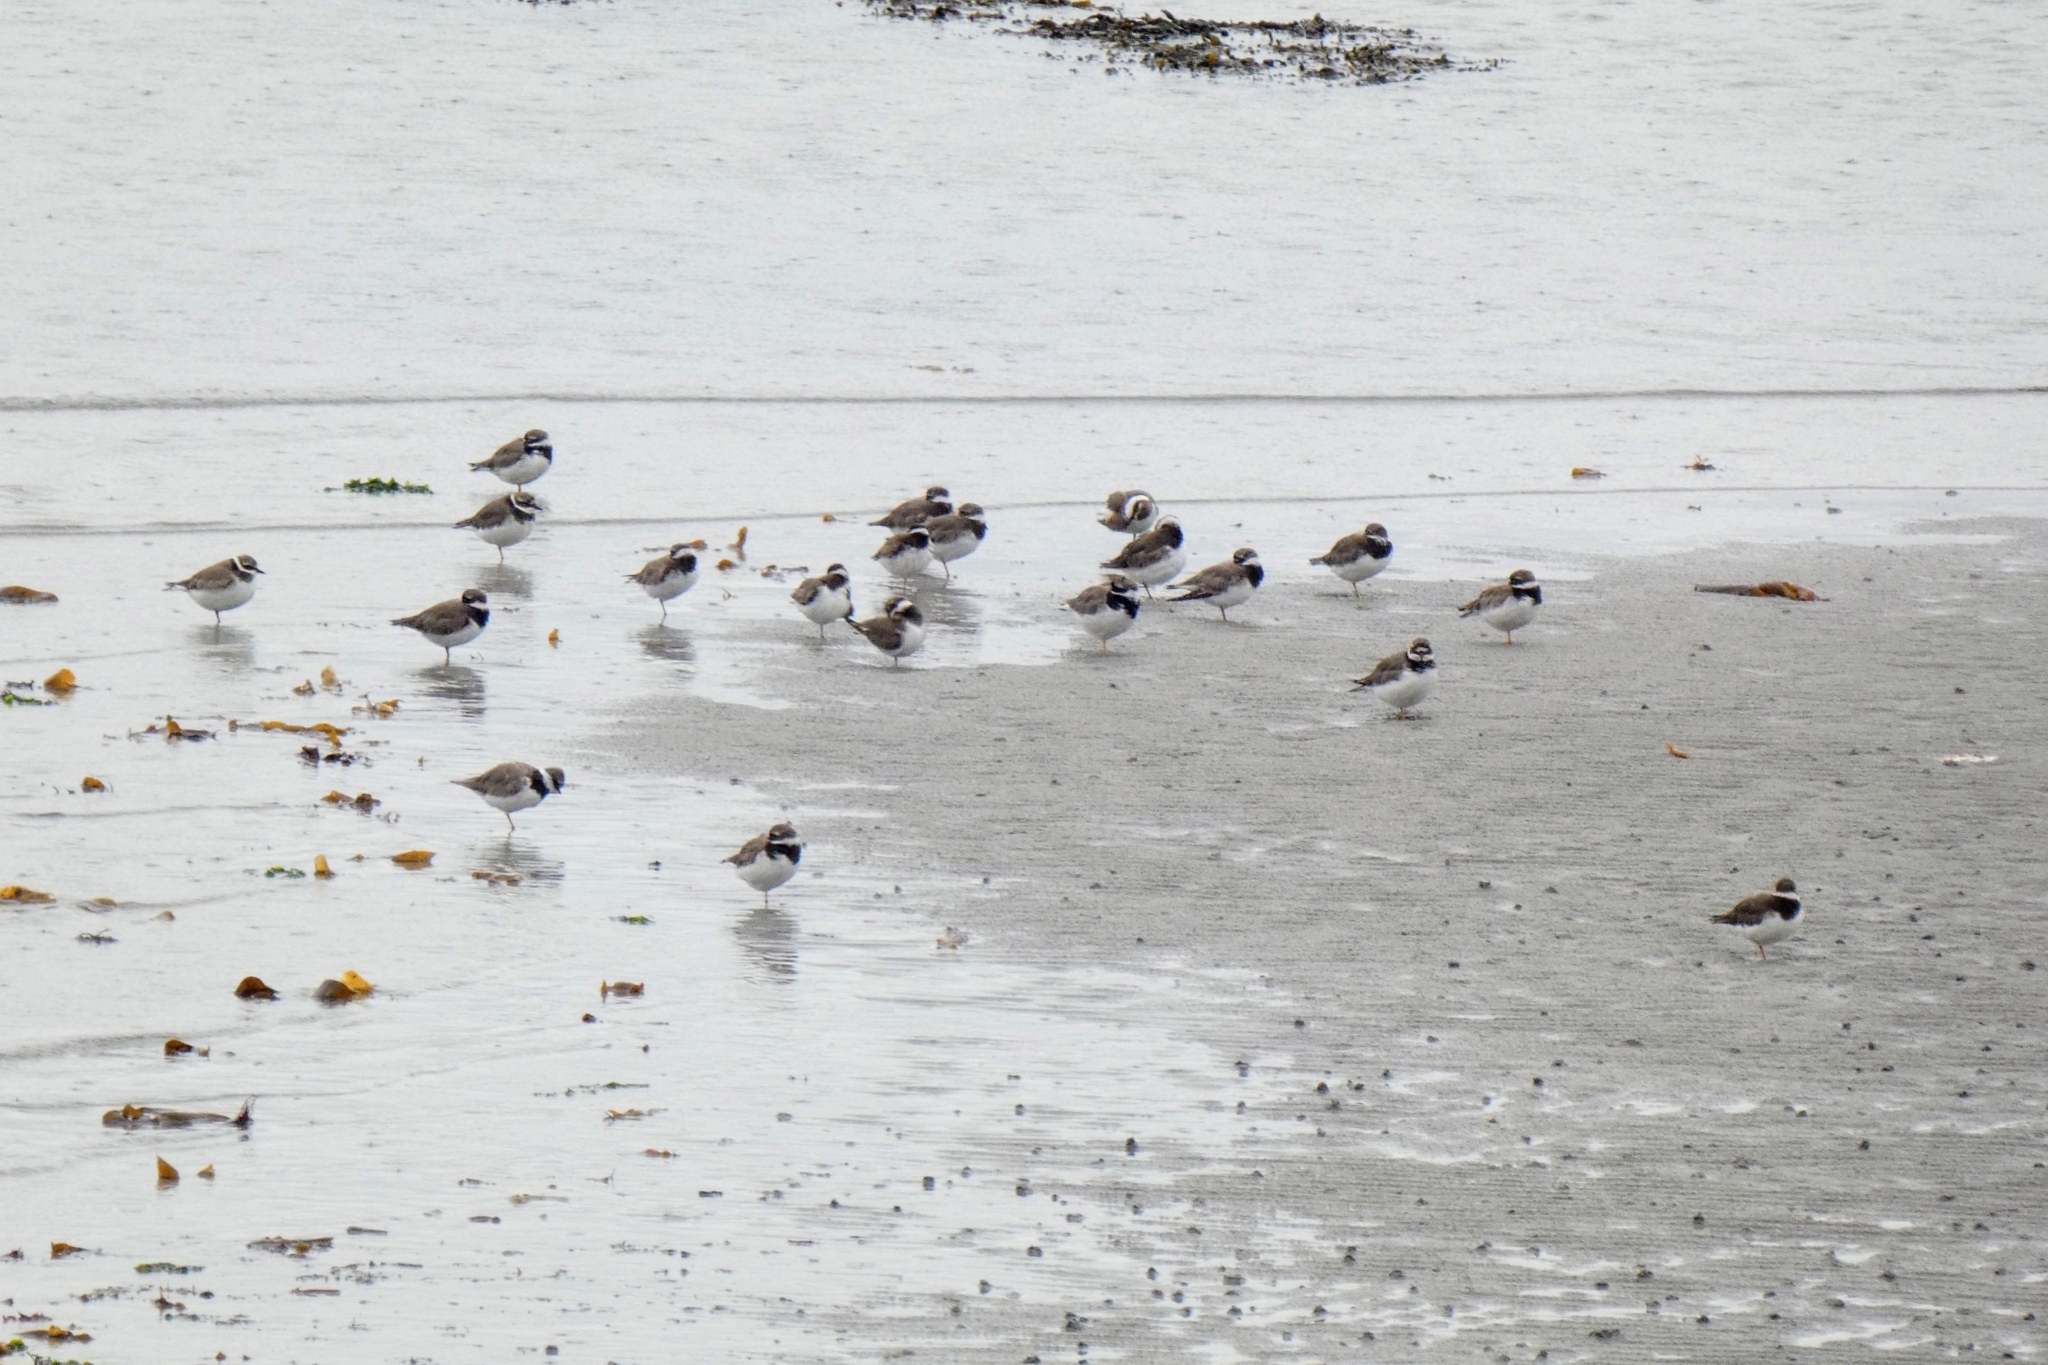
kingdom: Animalia
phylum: Chordata
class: Aves
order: Charadriiformes
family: Charadriidae
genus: Charadrius
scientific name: Charadrius hiaticula
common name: Common ringed plover
